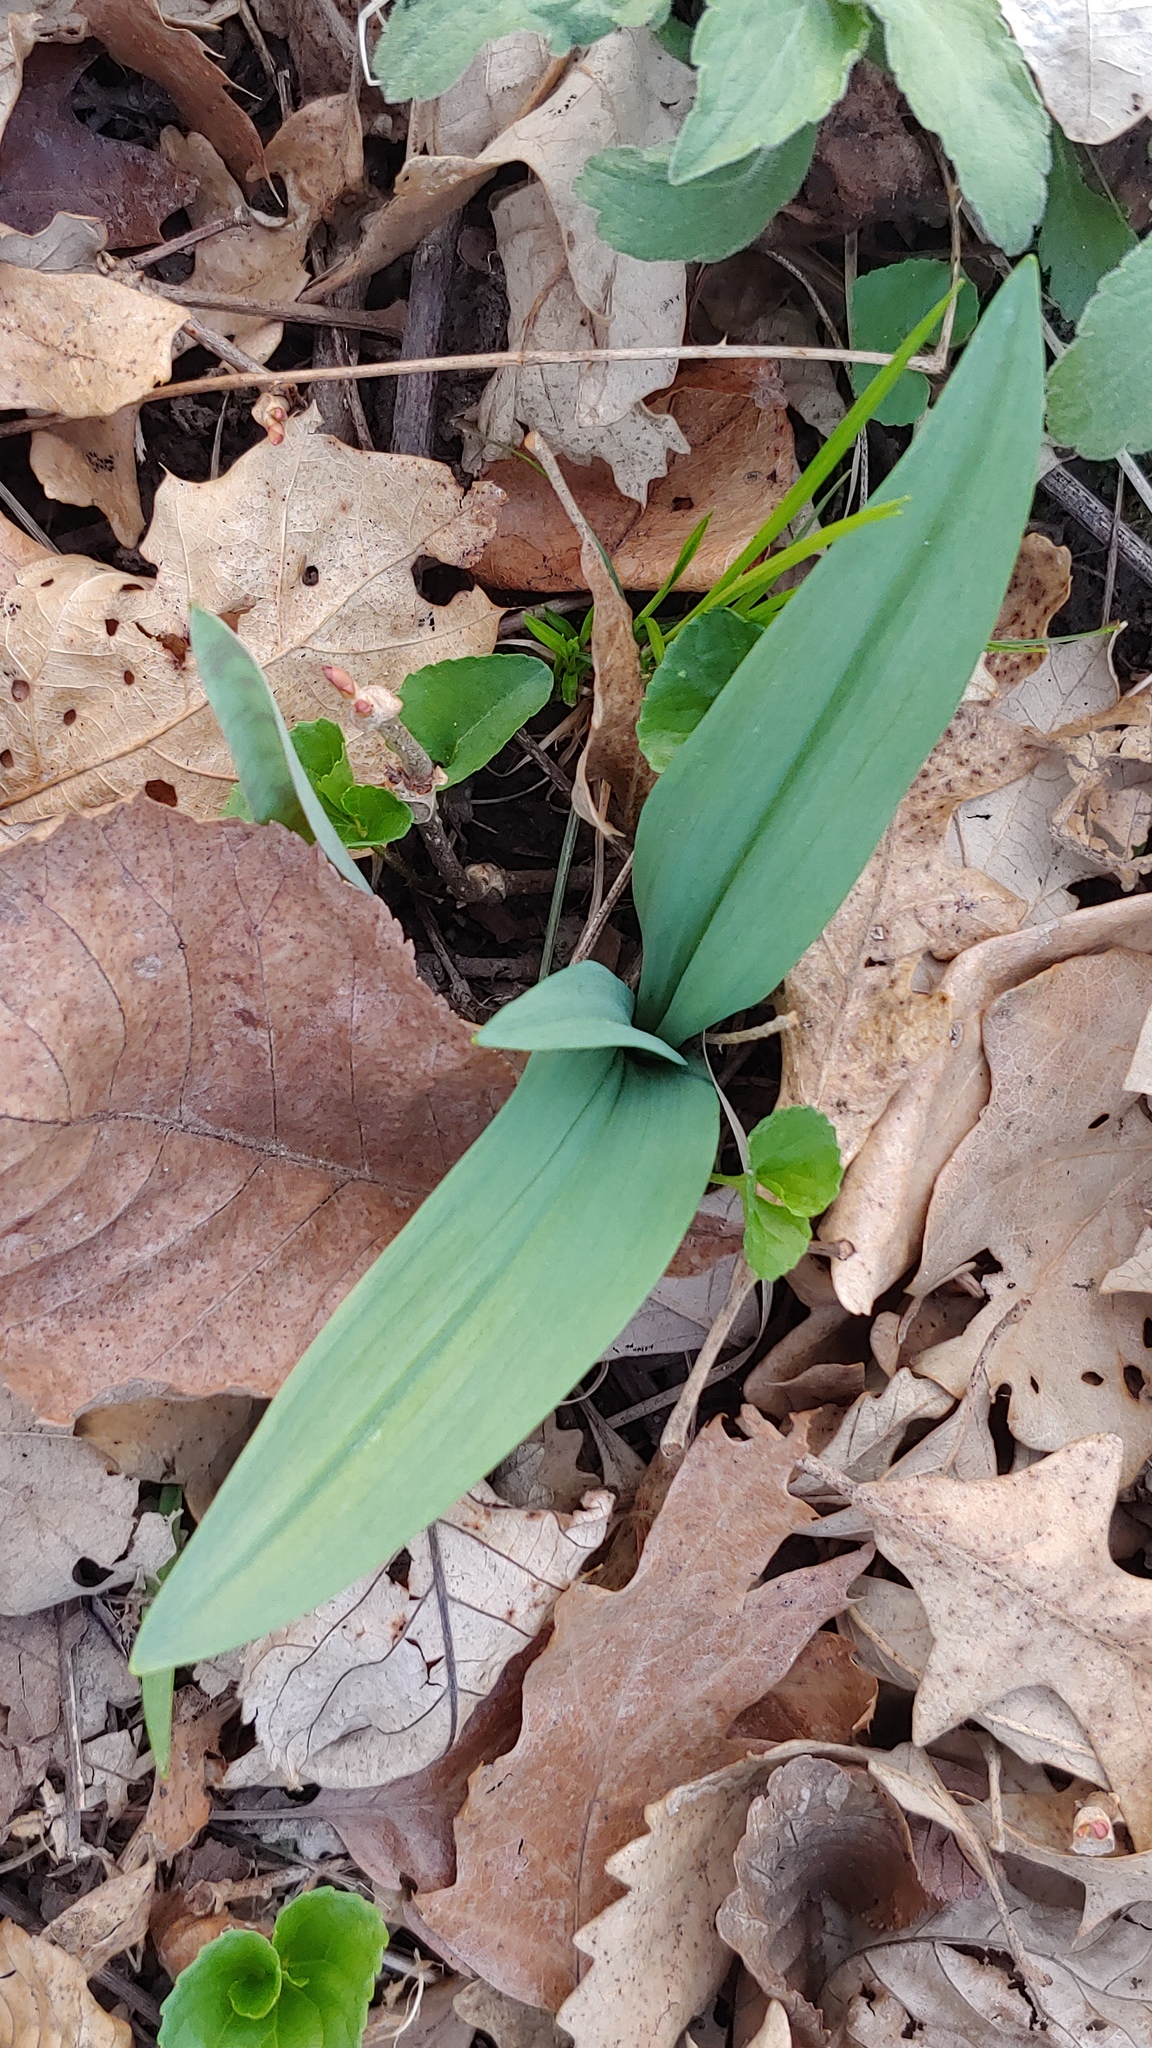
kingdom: Plantae
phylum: Tracheophyta
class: Liliopsida
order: Asparagales
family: Amaryllidaceae
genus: Allium
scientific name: Allium tricoccum
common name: Ramp
